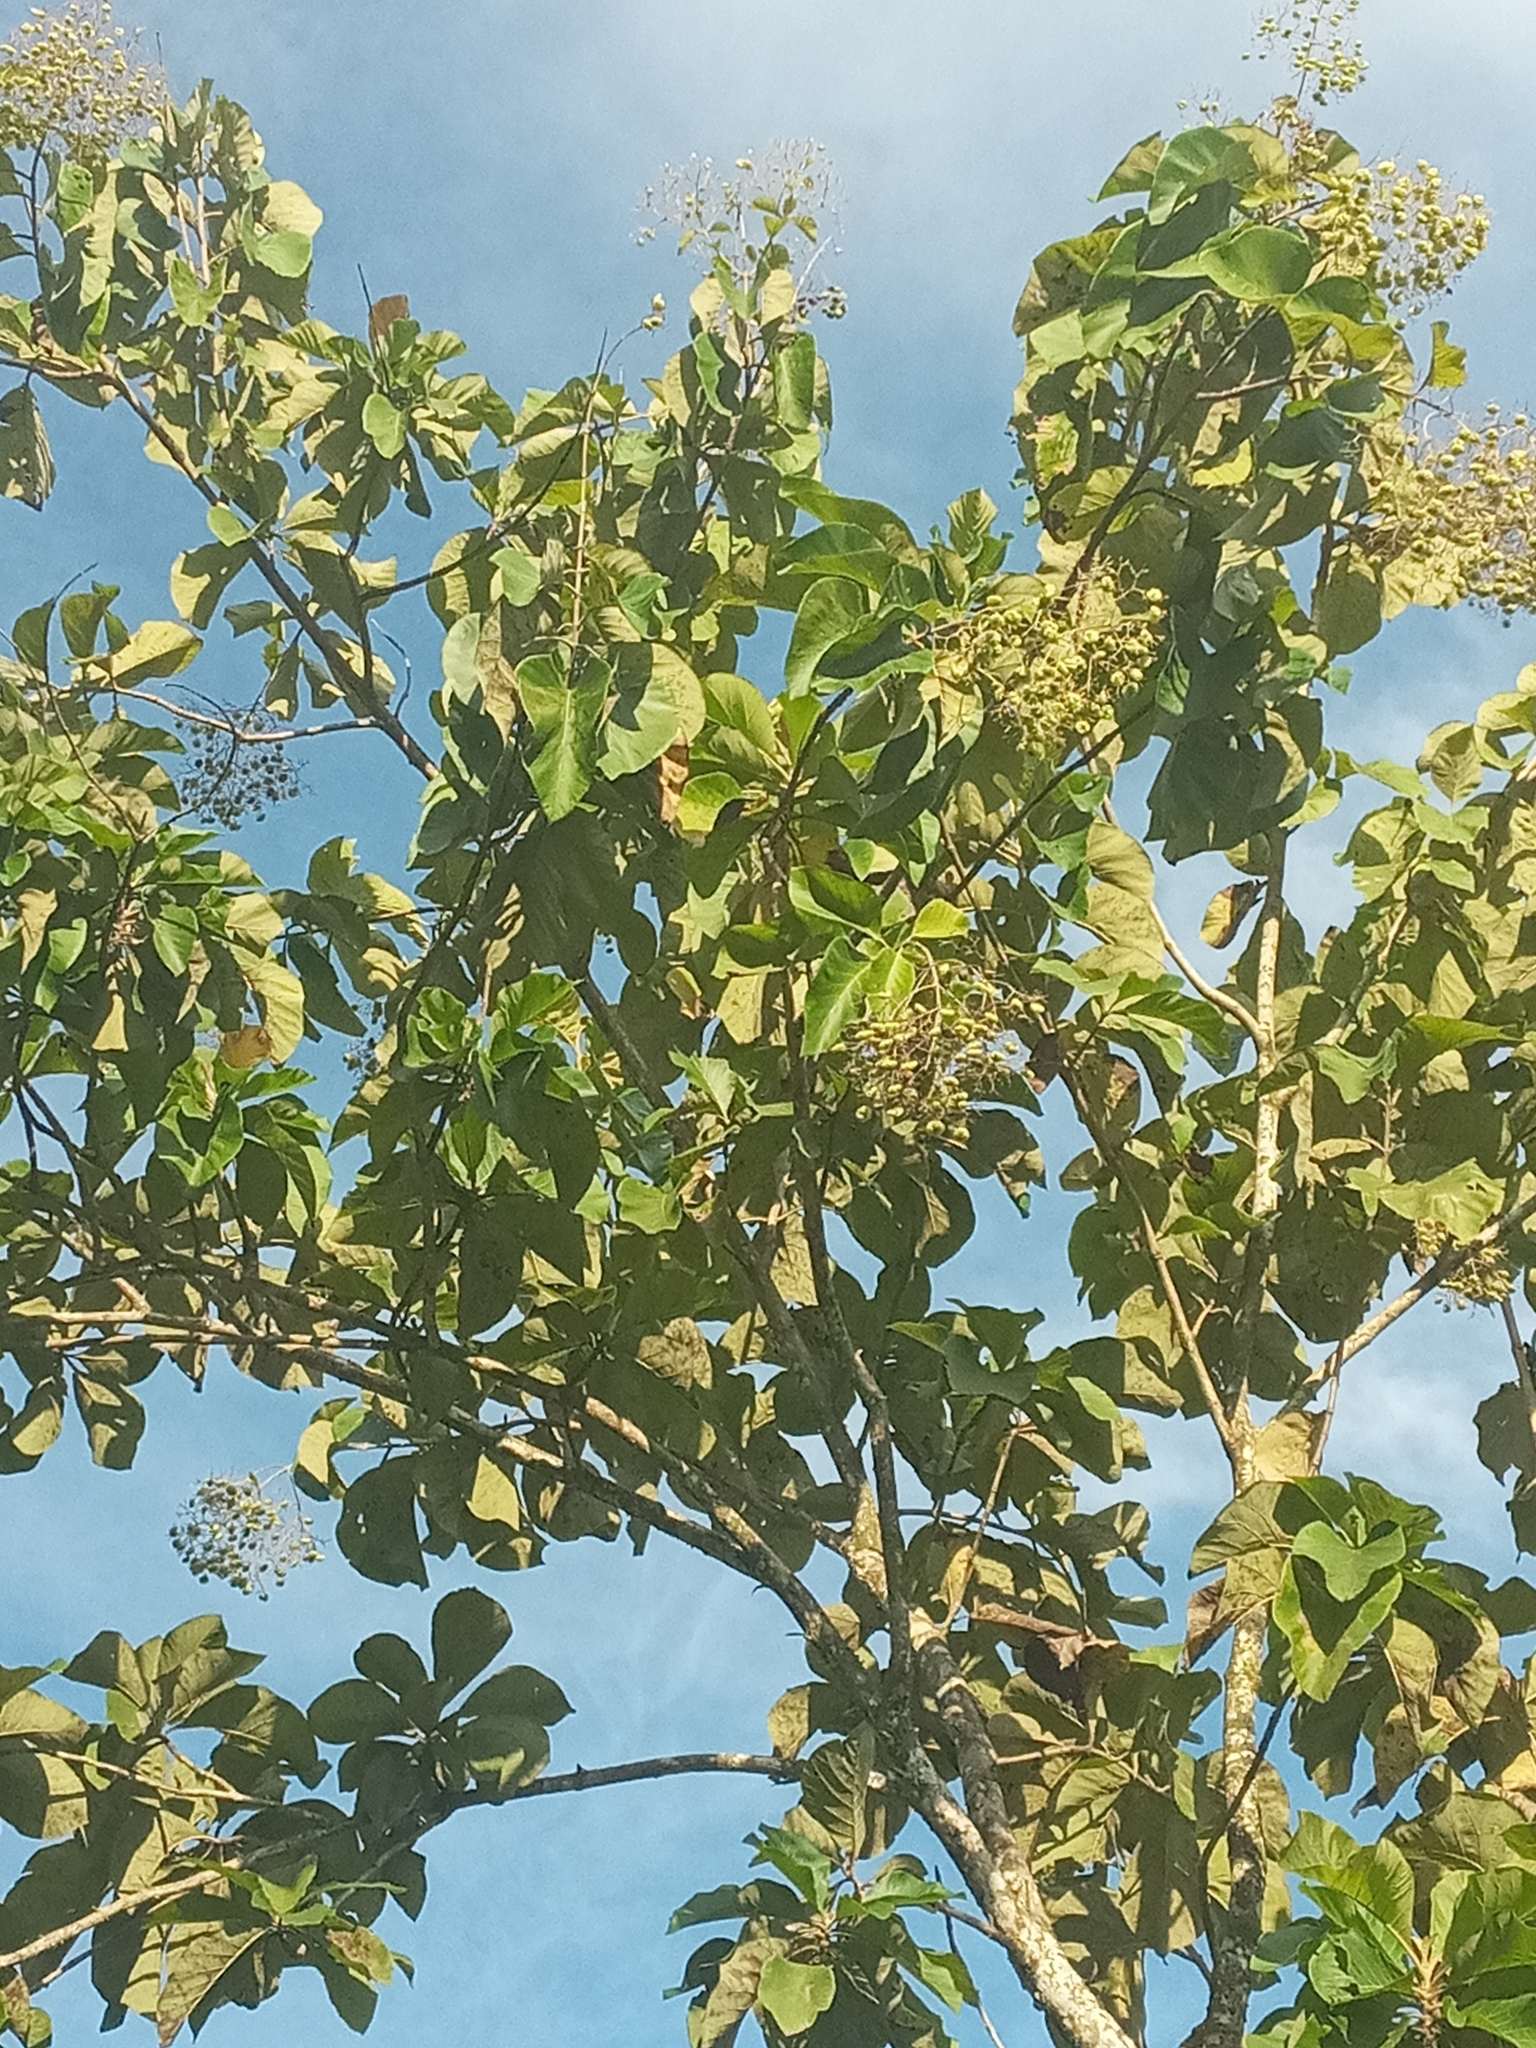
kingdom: Plantae
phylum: Tracheophyta
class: Magnoliopsida
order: Lamiales
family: Lamiaceae
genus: Tectona
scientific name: Tectona grandis
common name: Teak
